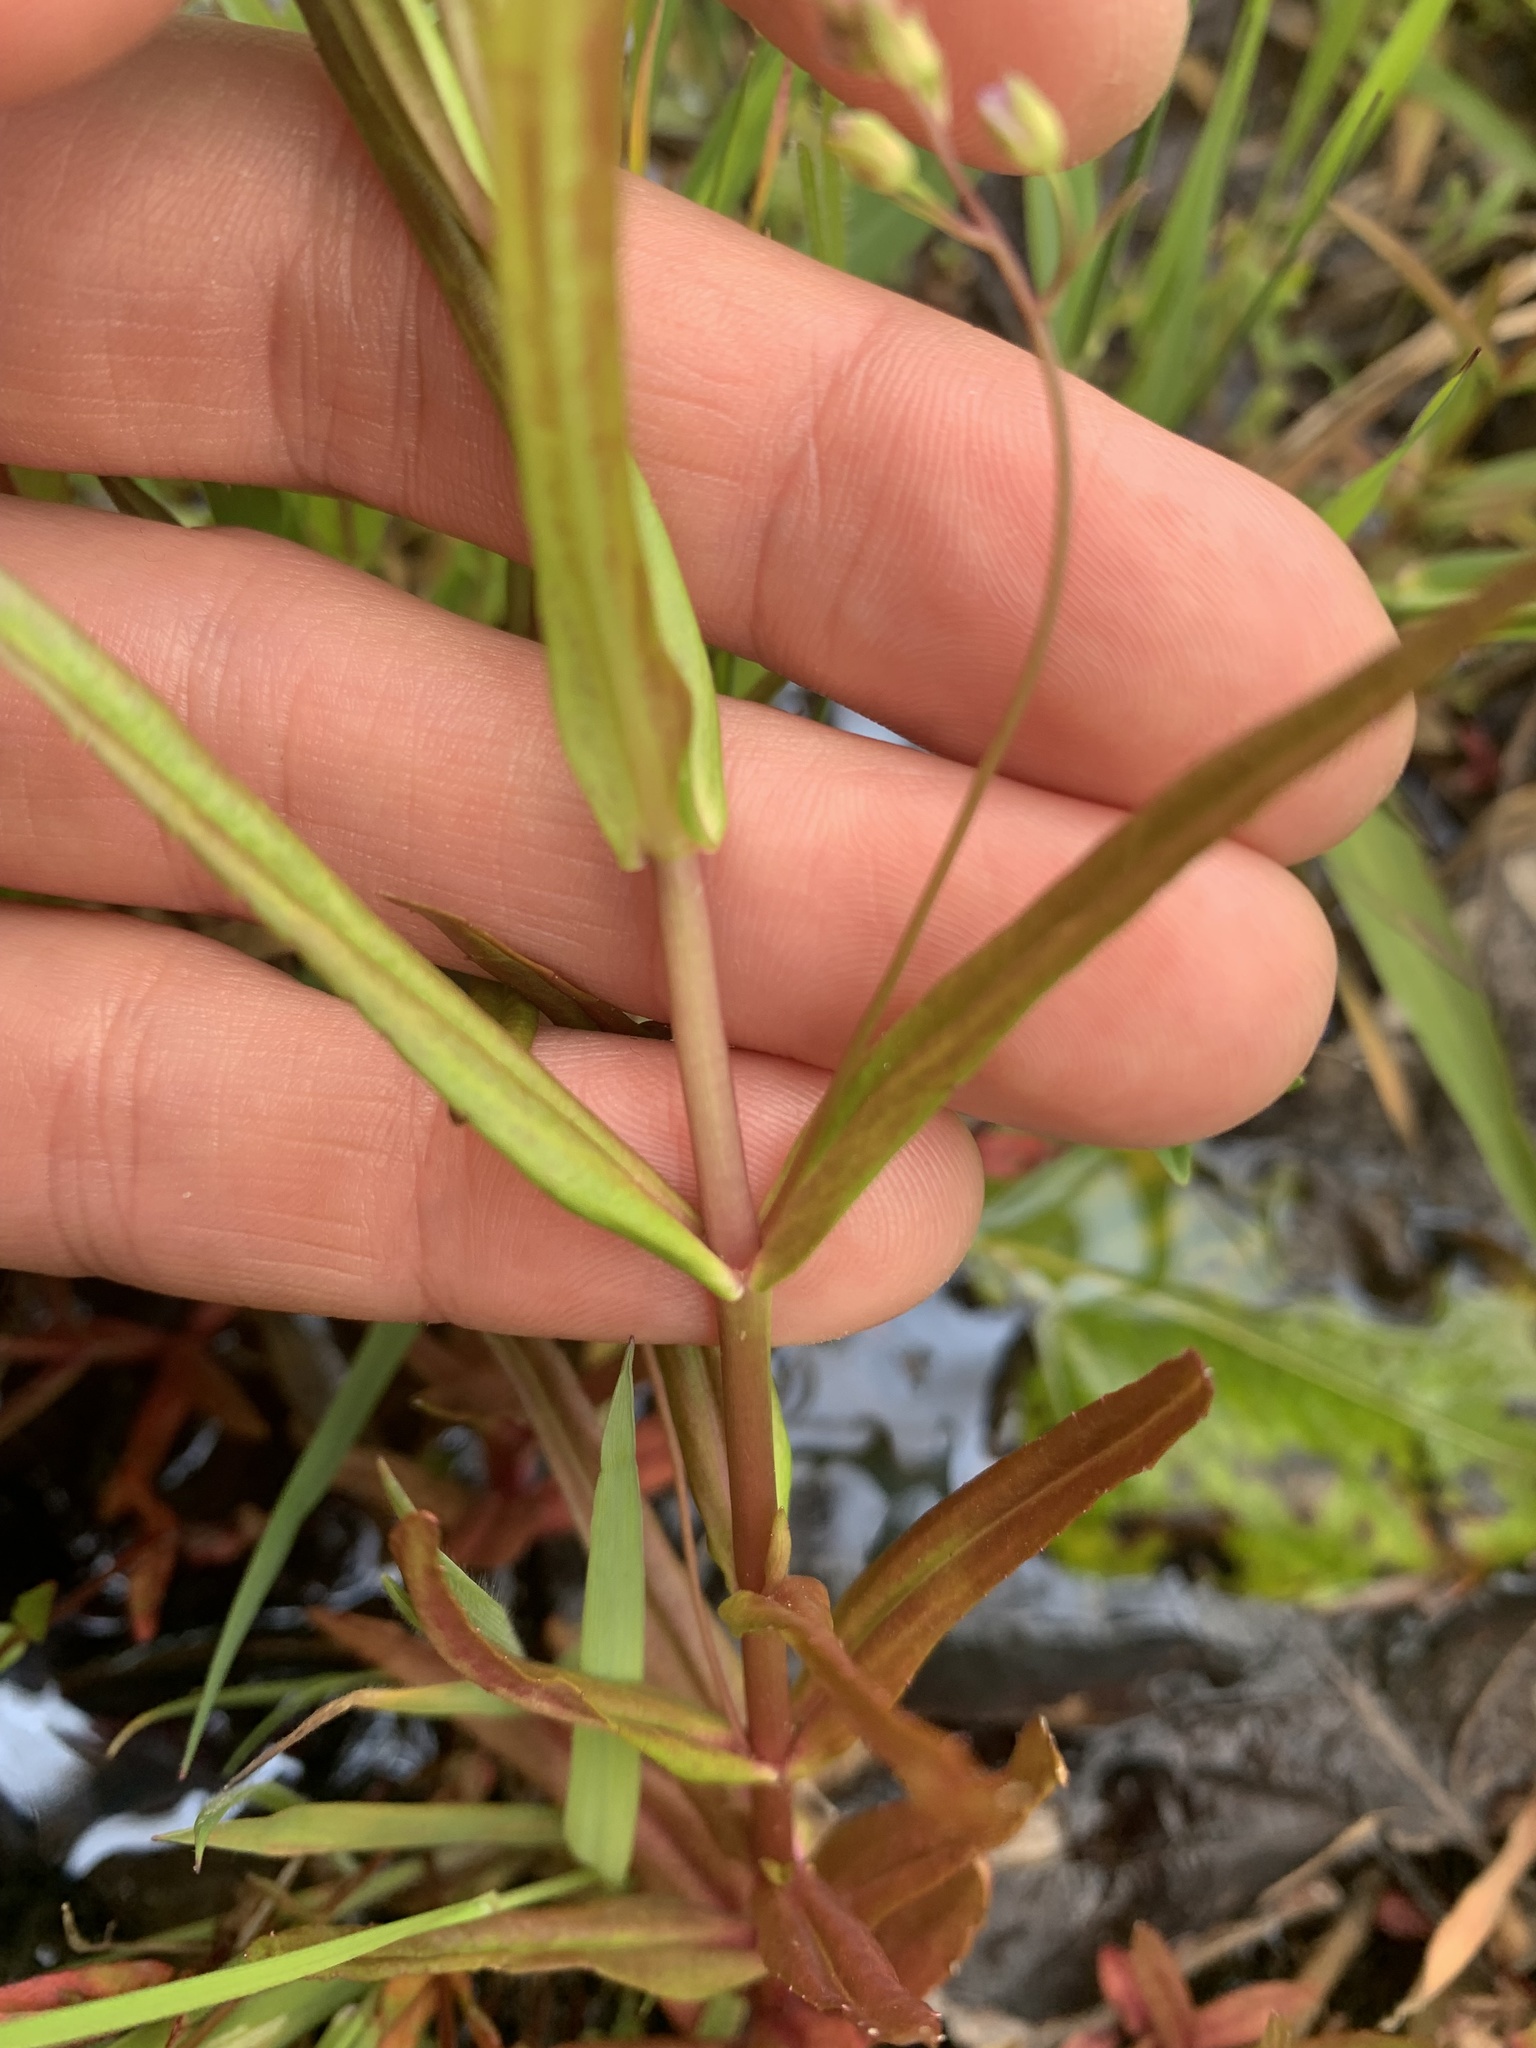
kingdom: Plantae
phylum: Tracheophyta
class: Magnoliopsida
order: Lamiales
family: Plantaginaceae
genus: Veronica
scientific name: Veronica scutellata
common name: Marsh speedwell
